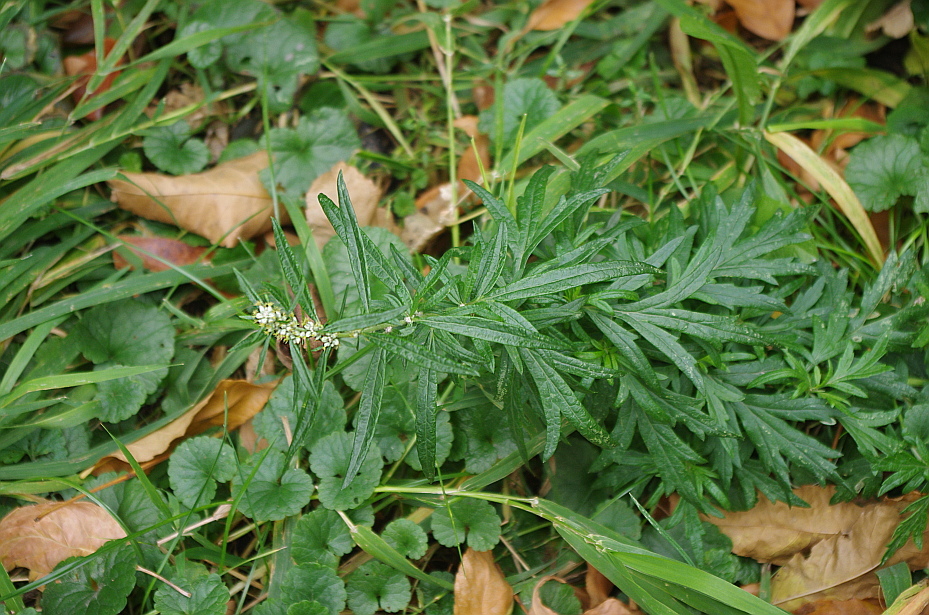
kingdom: Plantae
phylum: Tracheophyta
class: Magnoliopsida
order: Asterales
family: Asteraceae
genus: Artemisia
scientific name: Artemisia vulgaris
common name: Mugwort
